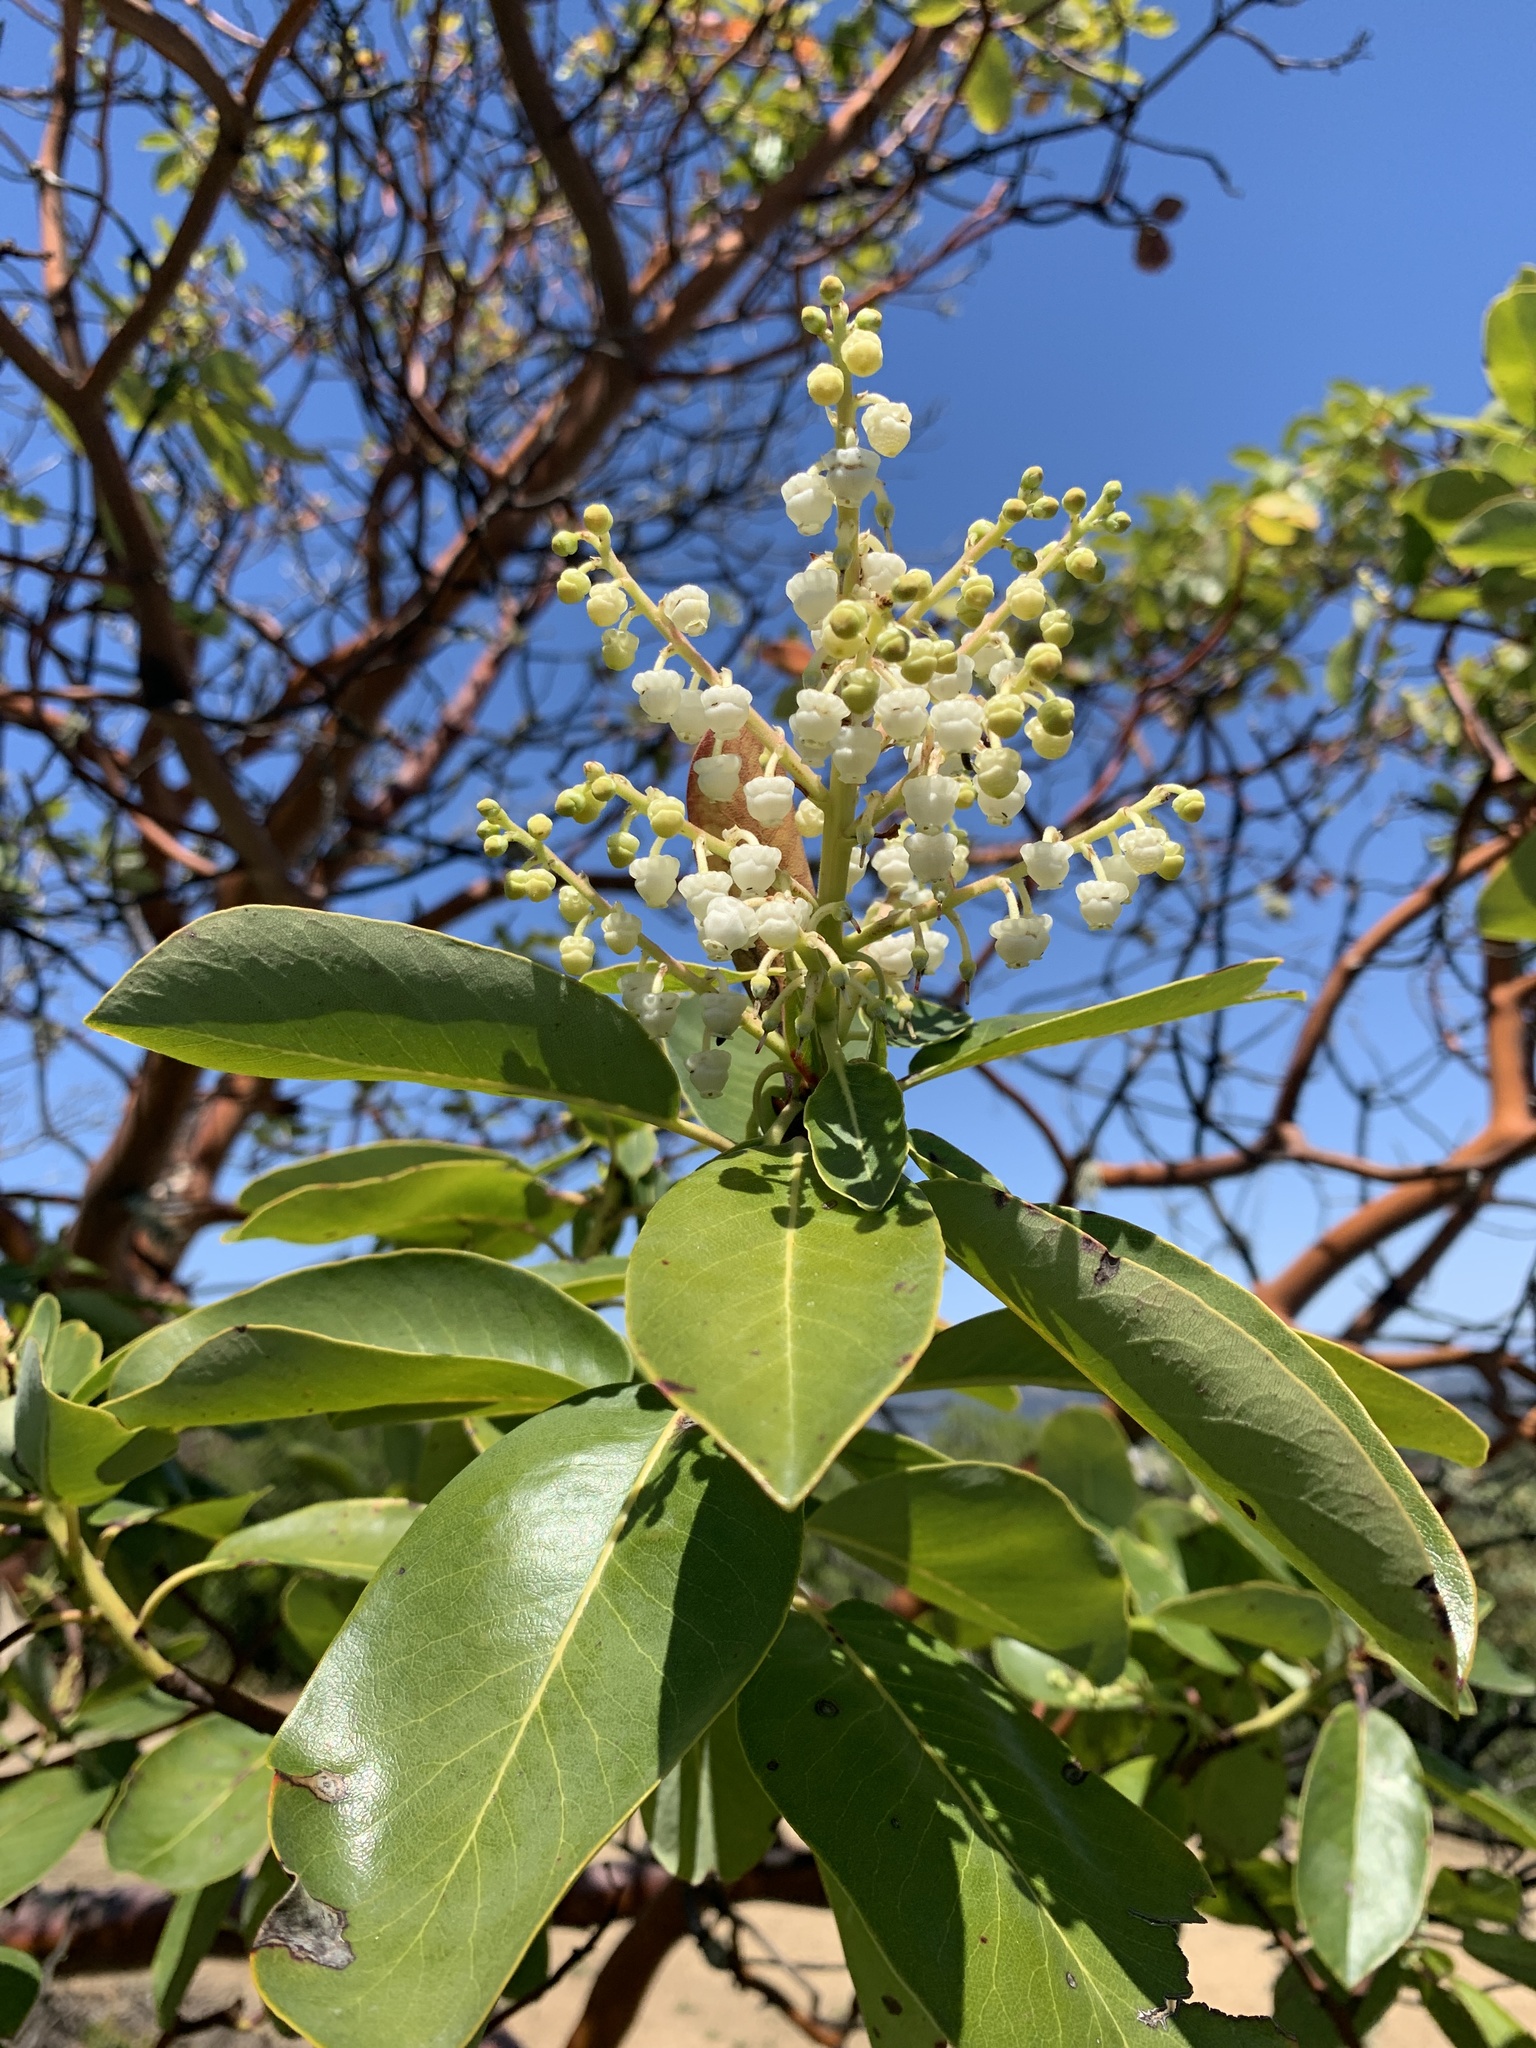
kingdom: Plantae
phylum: Tracheophyta
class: Magnoliopsida
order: Ericales
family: Ericaceae
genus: Arbutus
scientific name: Arbutus menziesii
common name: Pacific madrone
